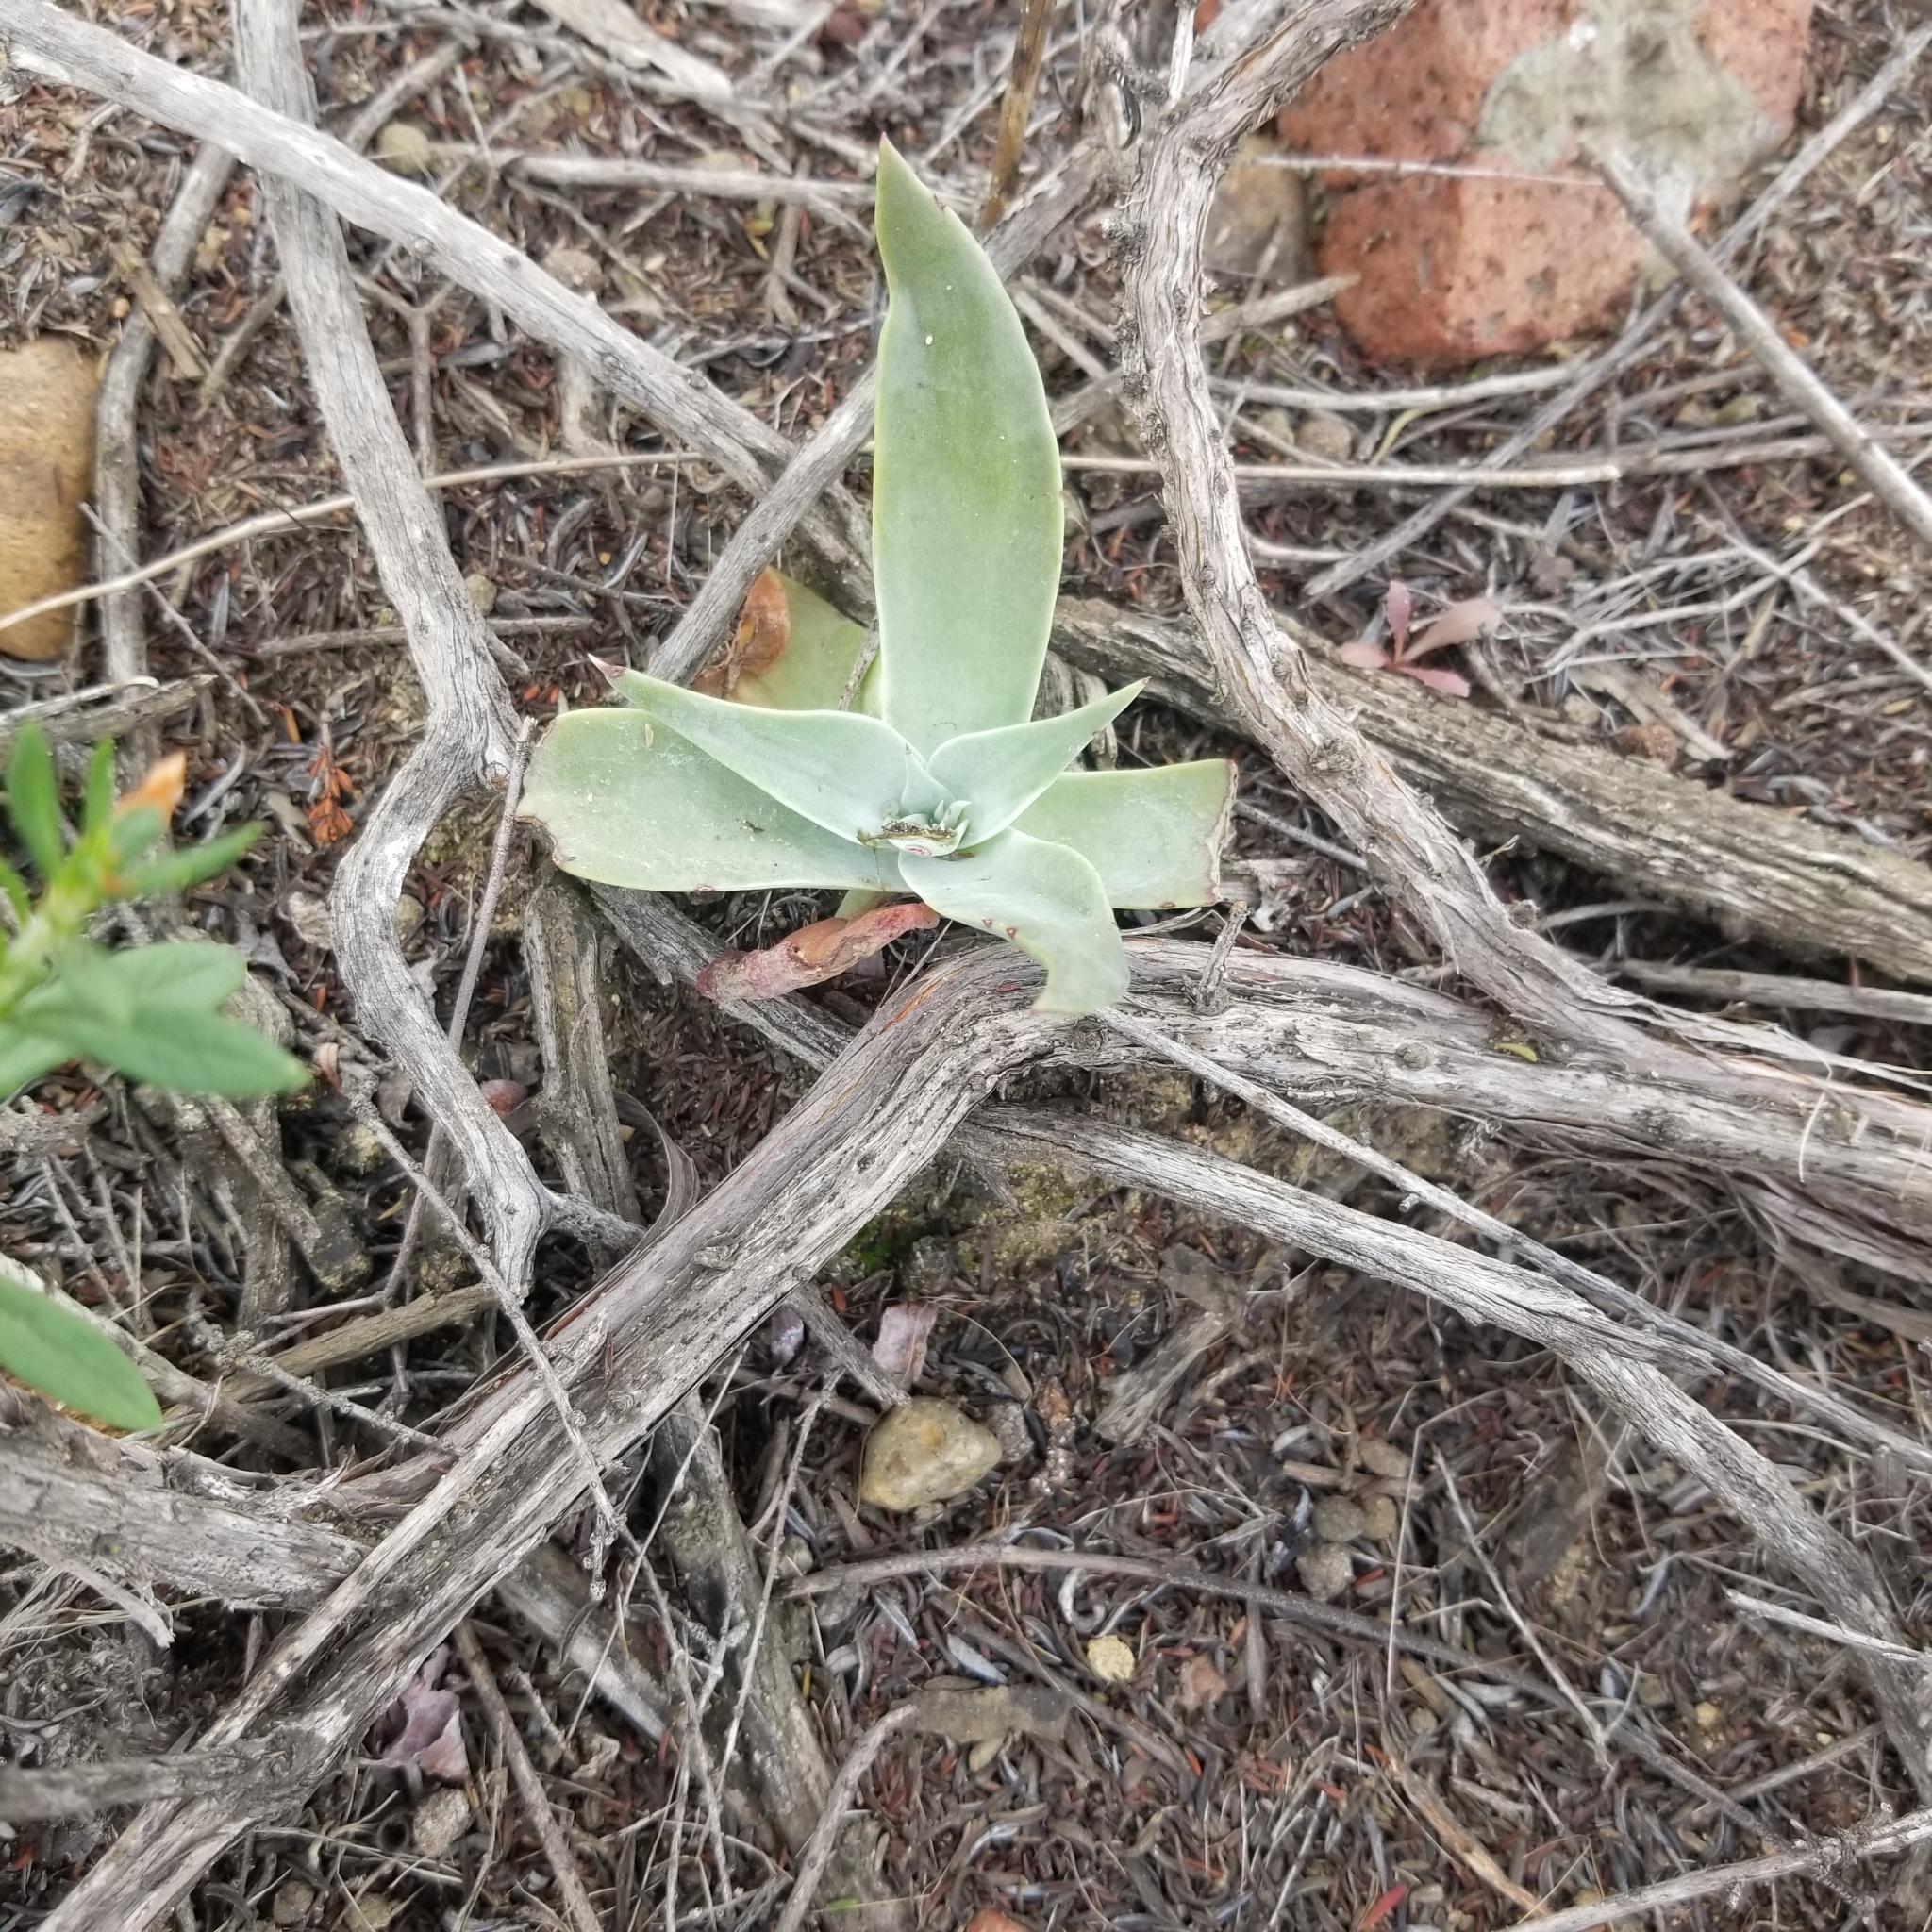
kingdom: Plantae
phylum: Tracheophyta
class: Magnoliopsida
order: Saxifragales
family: Crassulaceae
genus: Dudleya
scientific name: Dudleya pulverulenta
